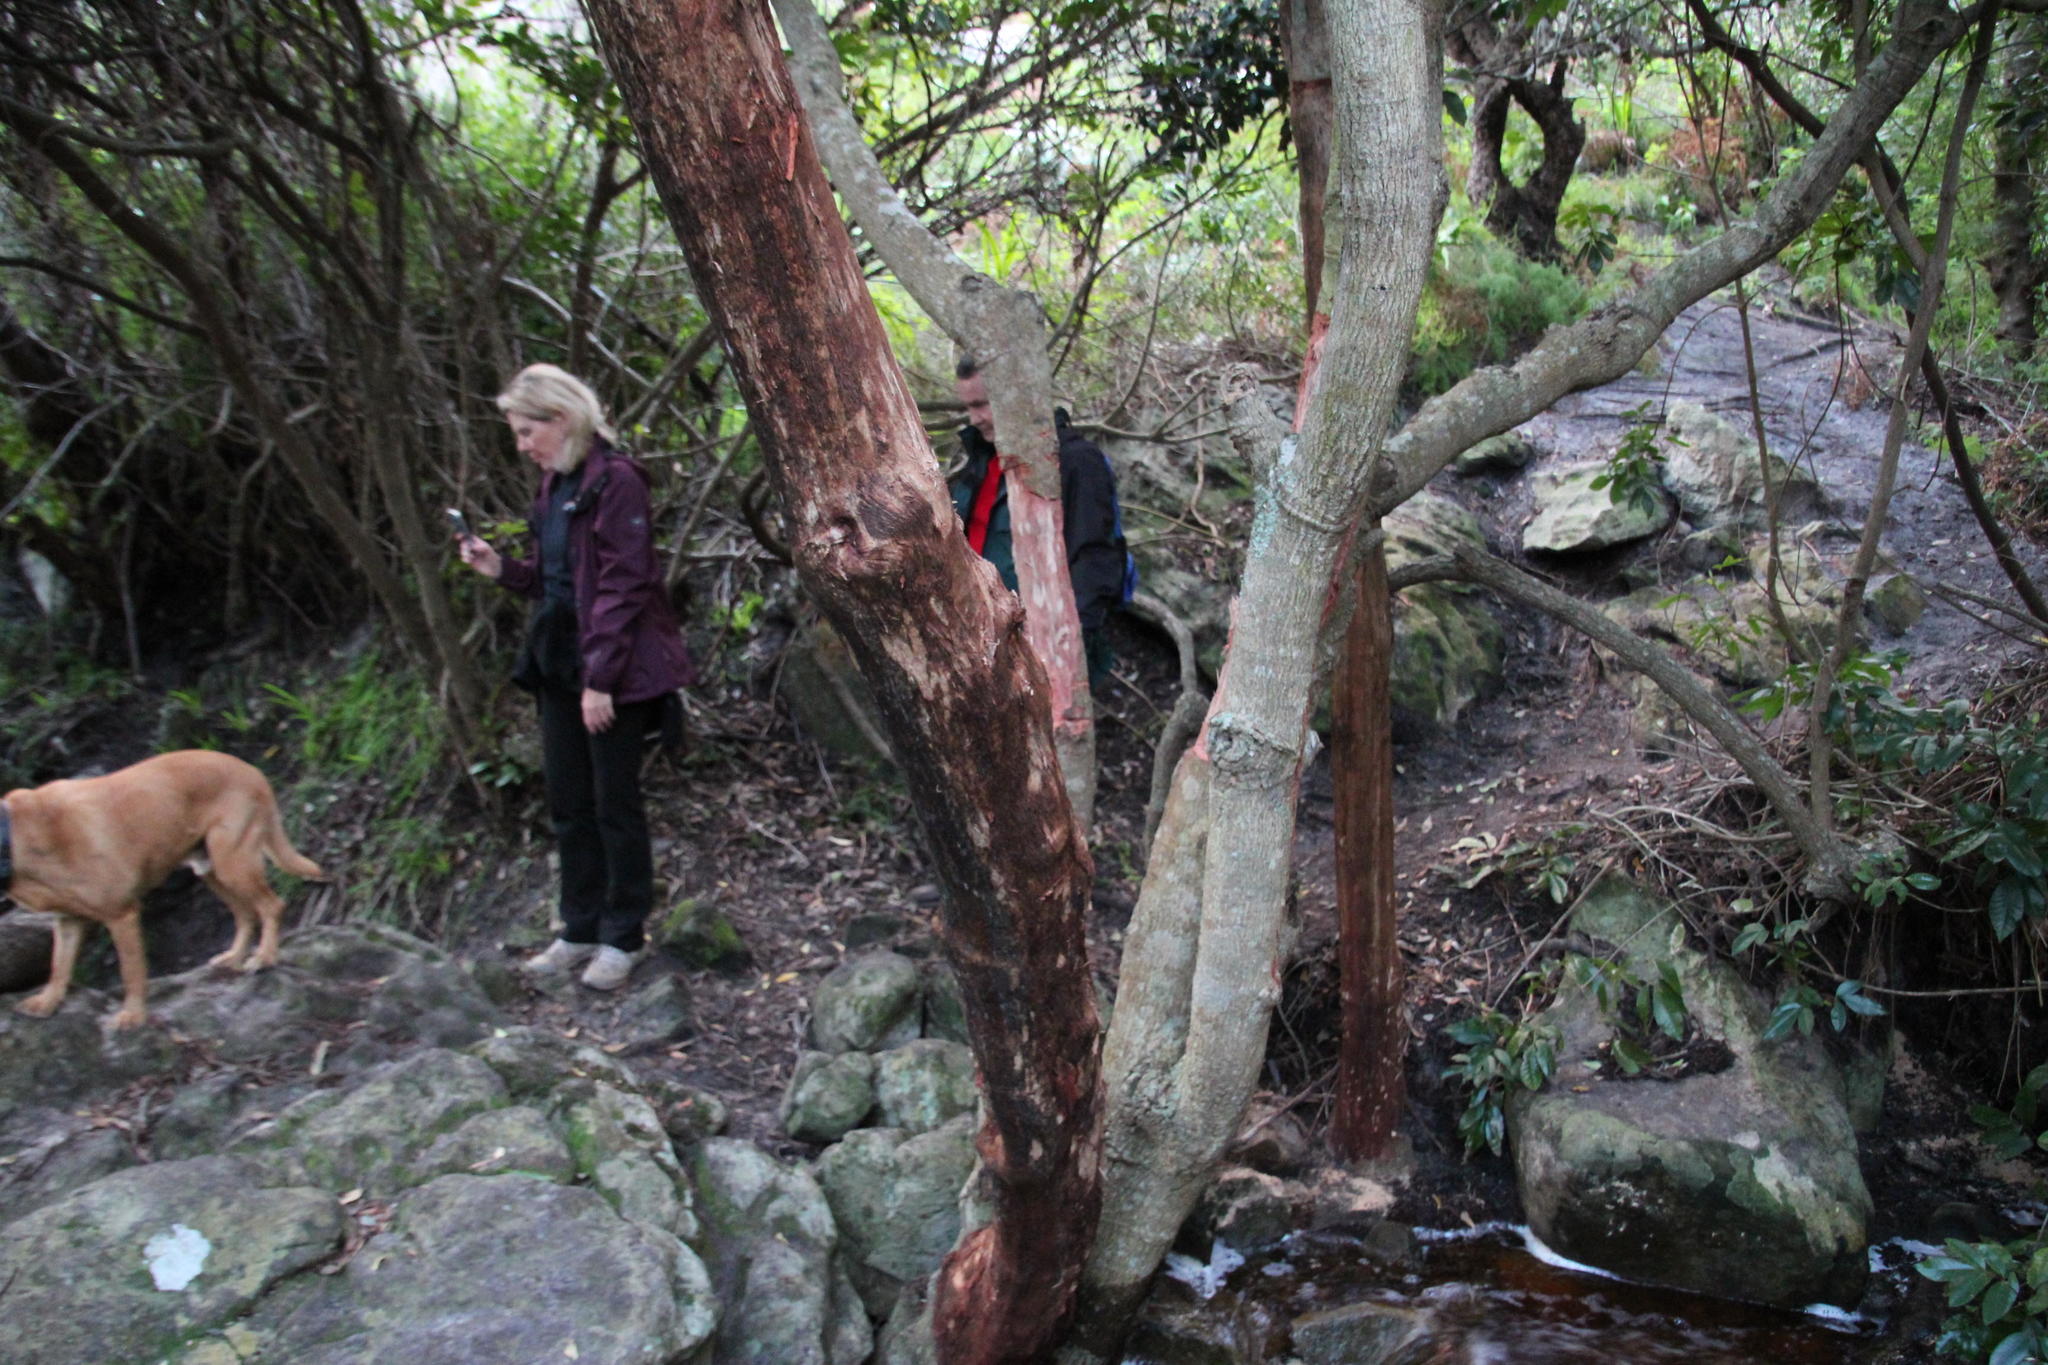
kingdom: Plantae
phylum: Tracheophyta
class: Magnoliopsida
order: Ericales
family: Primulaceae
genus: Myrsine
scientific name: Myrsine melanophloeos
